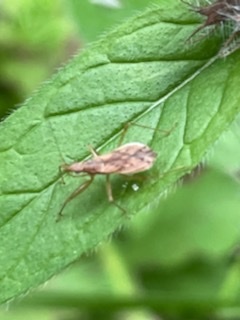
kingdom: Animalia
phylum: Arthropoda
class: Insecta
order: Hemiptera
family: Nabidae
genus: Nabis
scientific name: Nabis roseipennis
